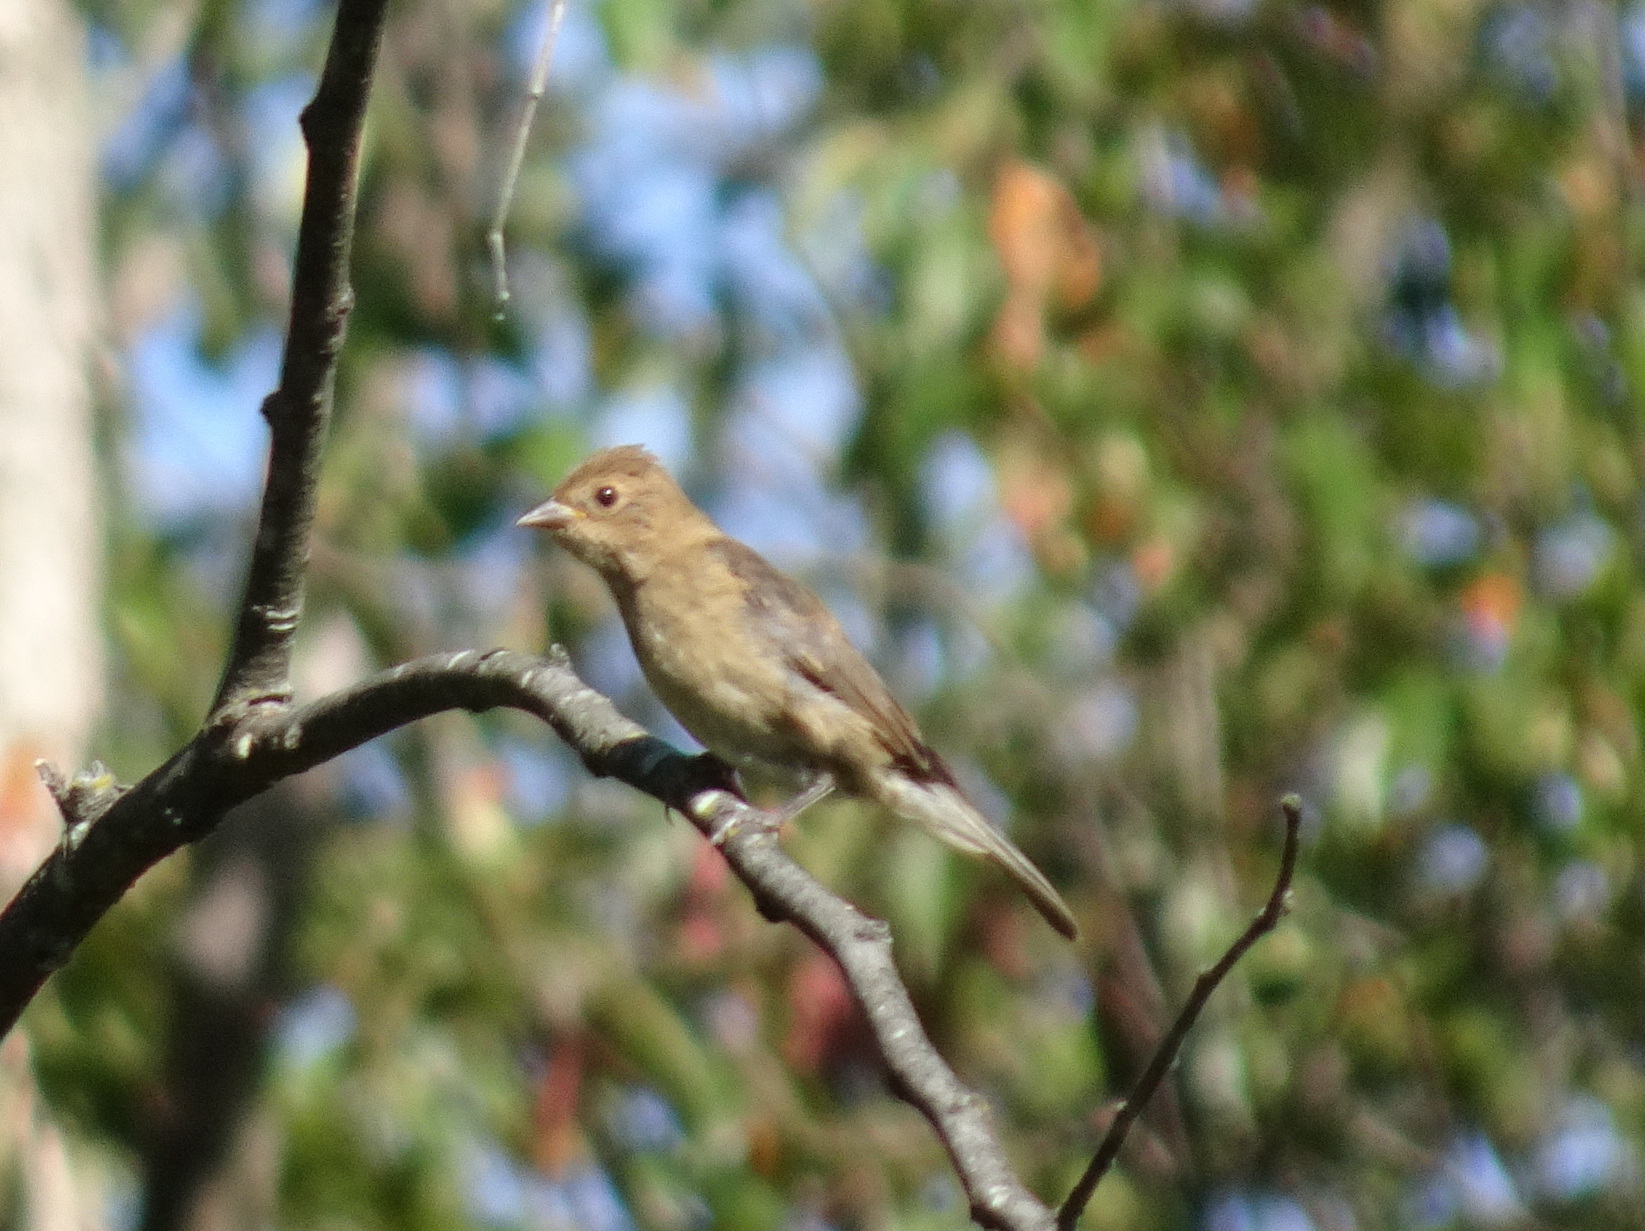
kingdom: Animalia
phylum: Chordata
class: Aves
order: Passeriformes
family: Cardinalidae
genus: Passerina
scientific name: Passerina cyanea
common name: Indigo bunting
